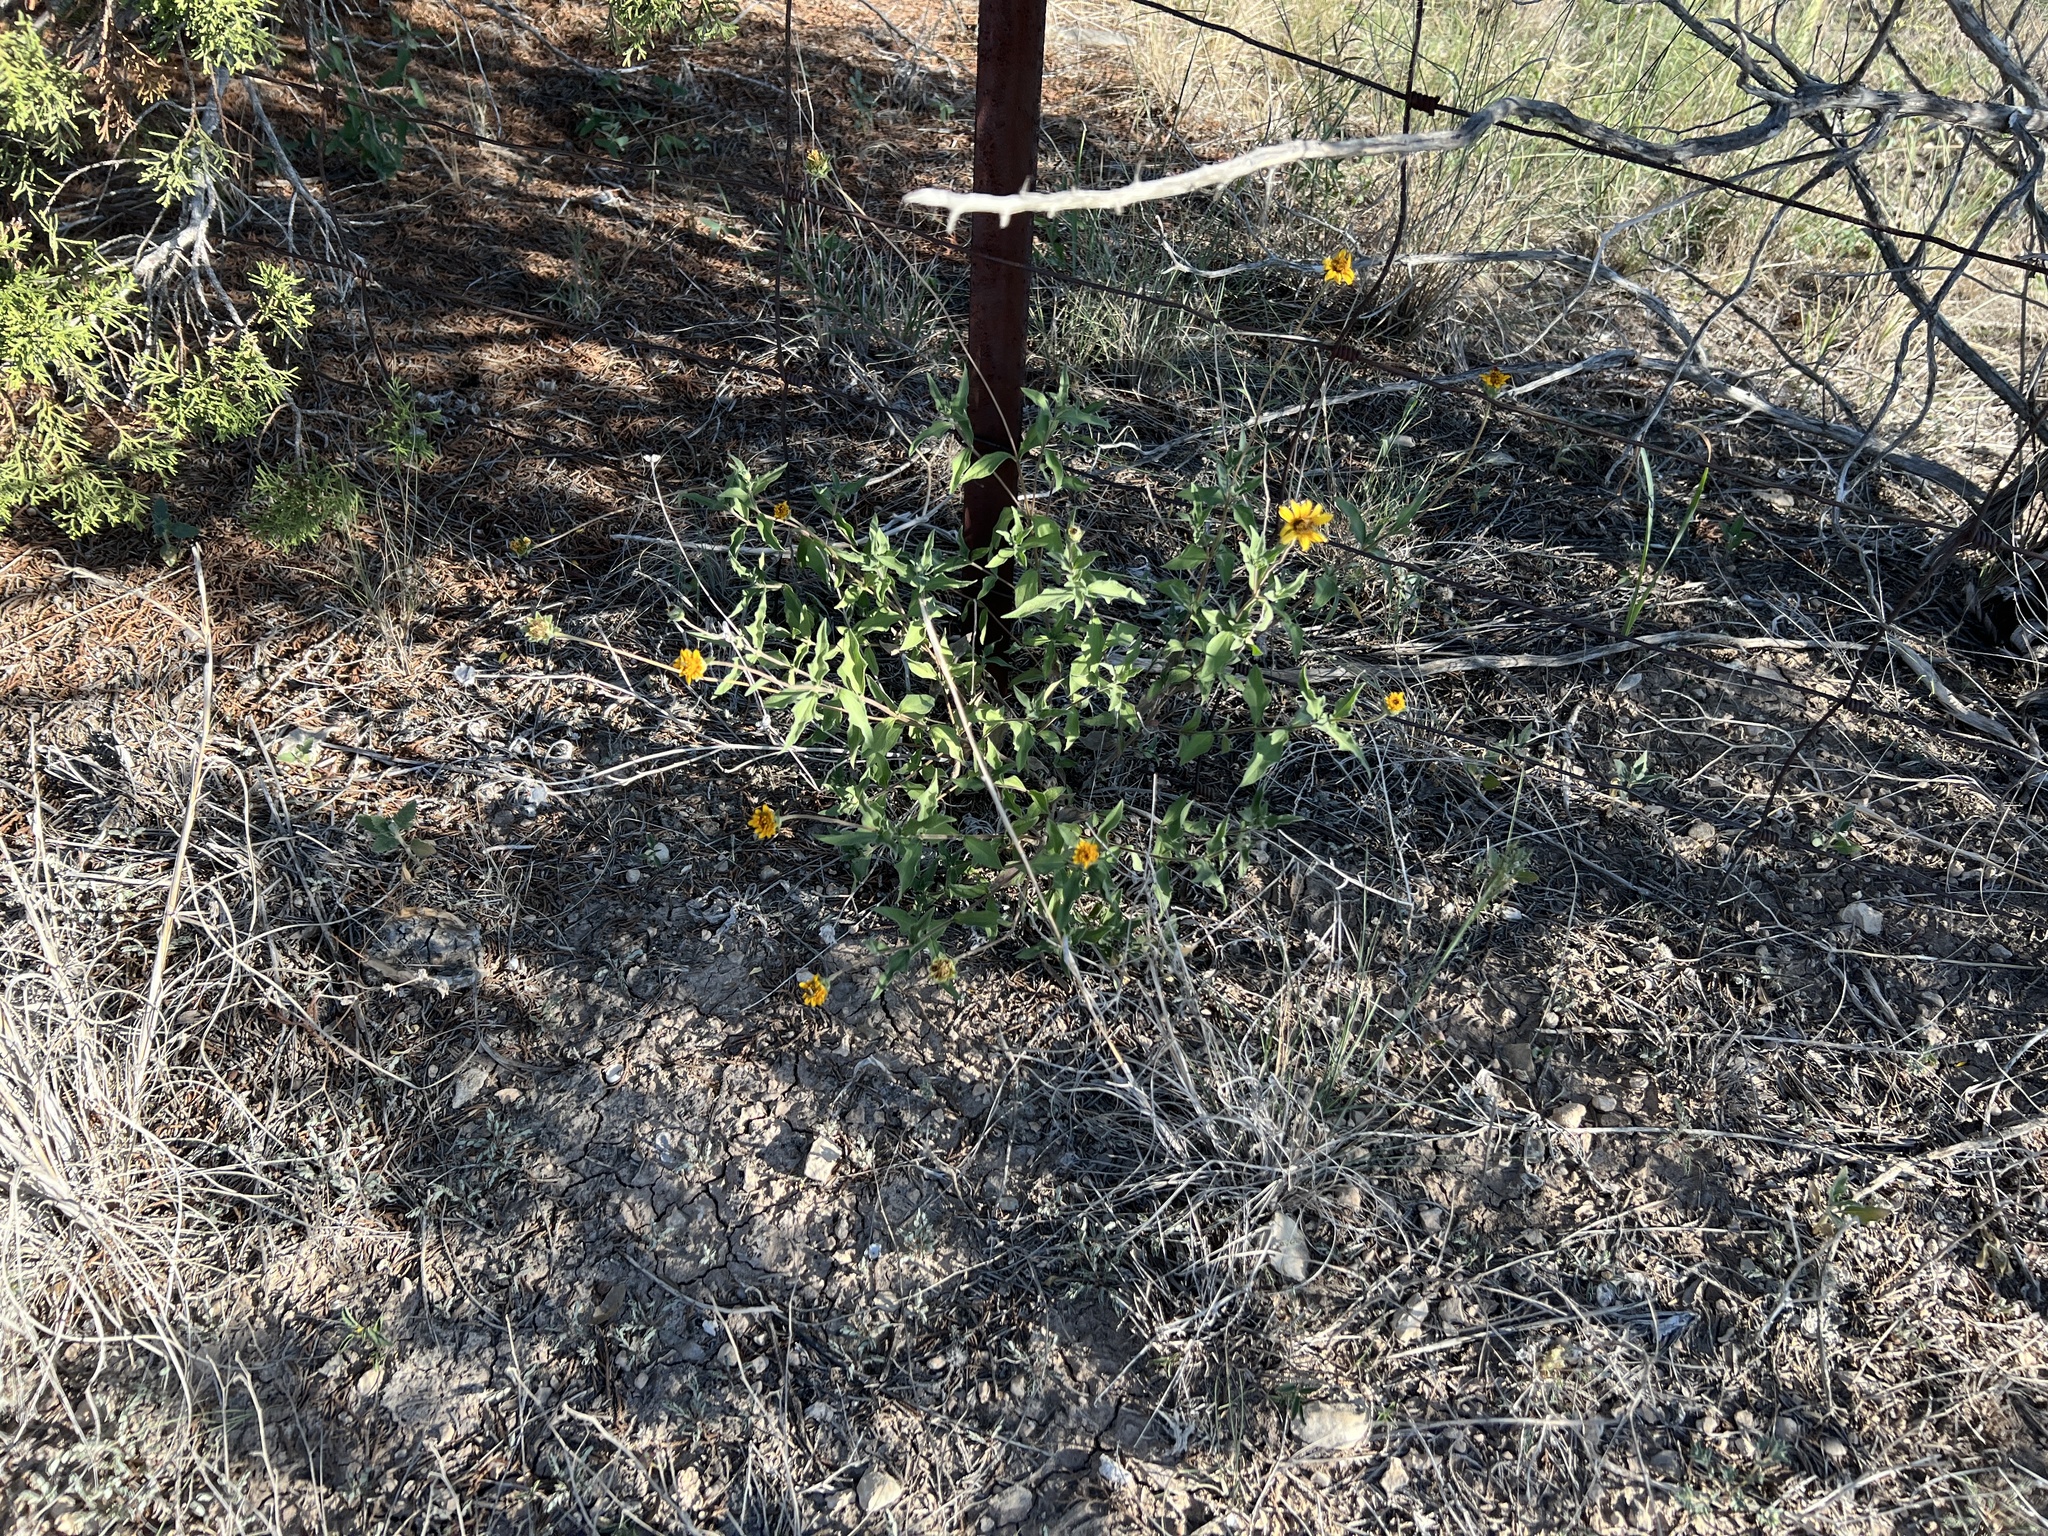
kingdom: Plantae
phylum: Tracheophyta
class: Magnoliopsida
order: Asterales
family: Asteraceae
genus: Wedelia
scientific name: Wedelia acapulcensis
